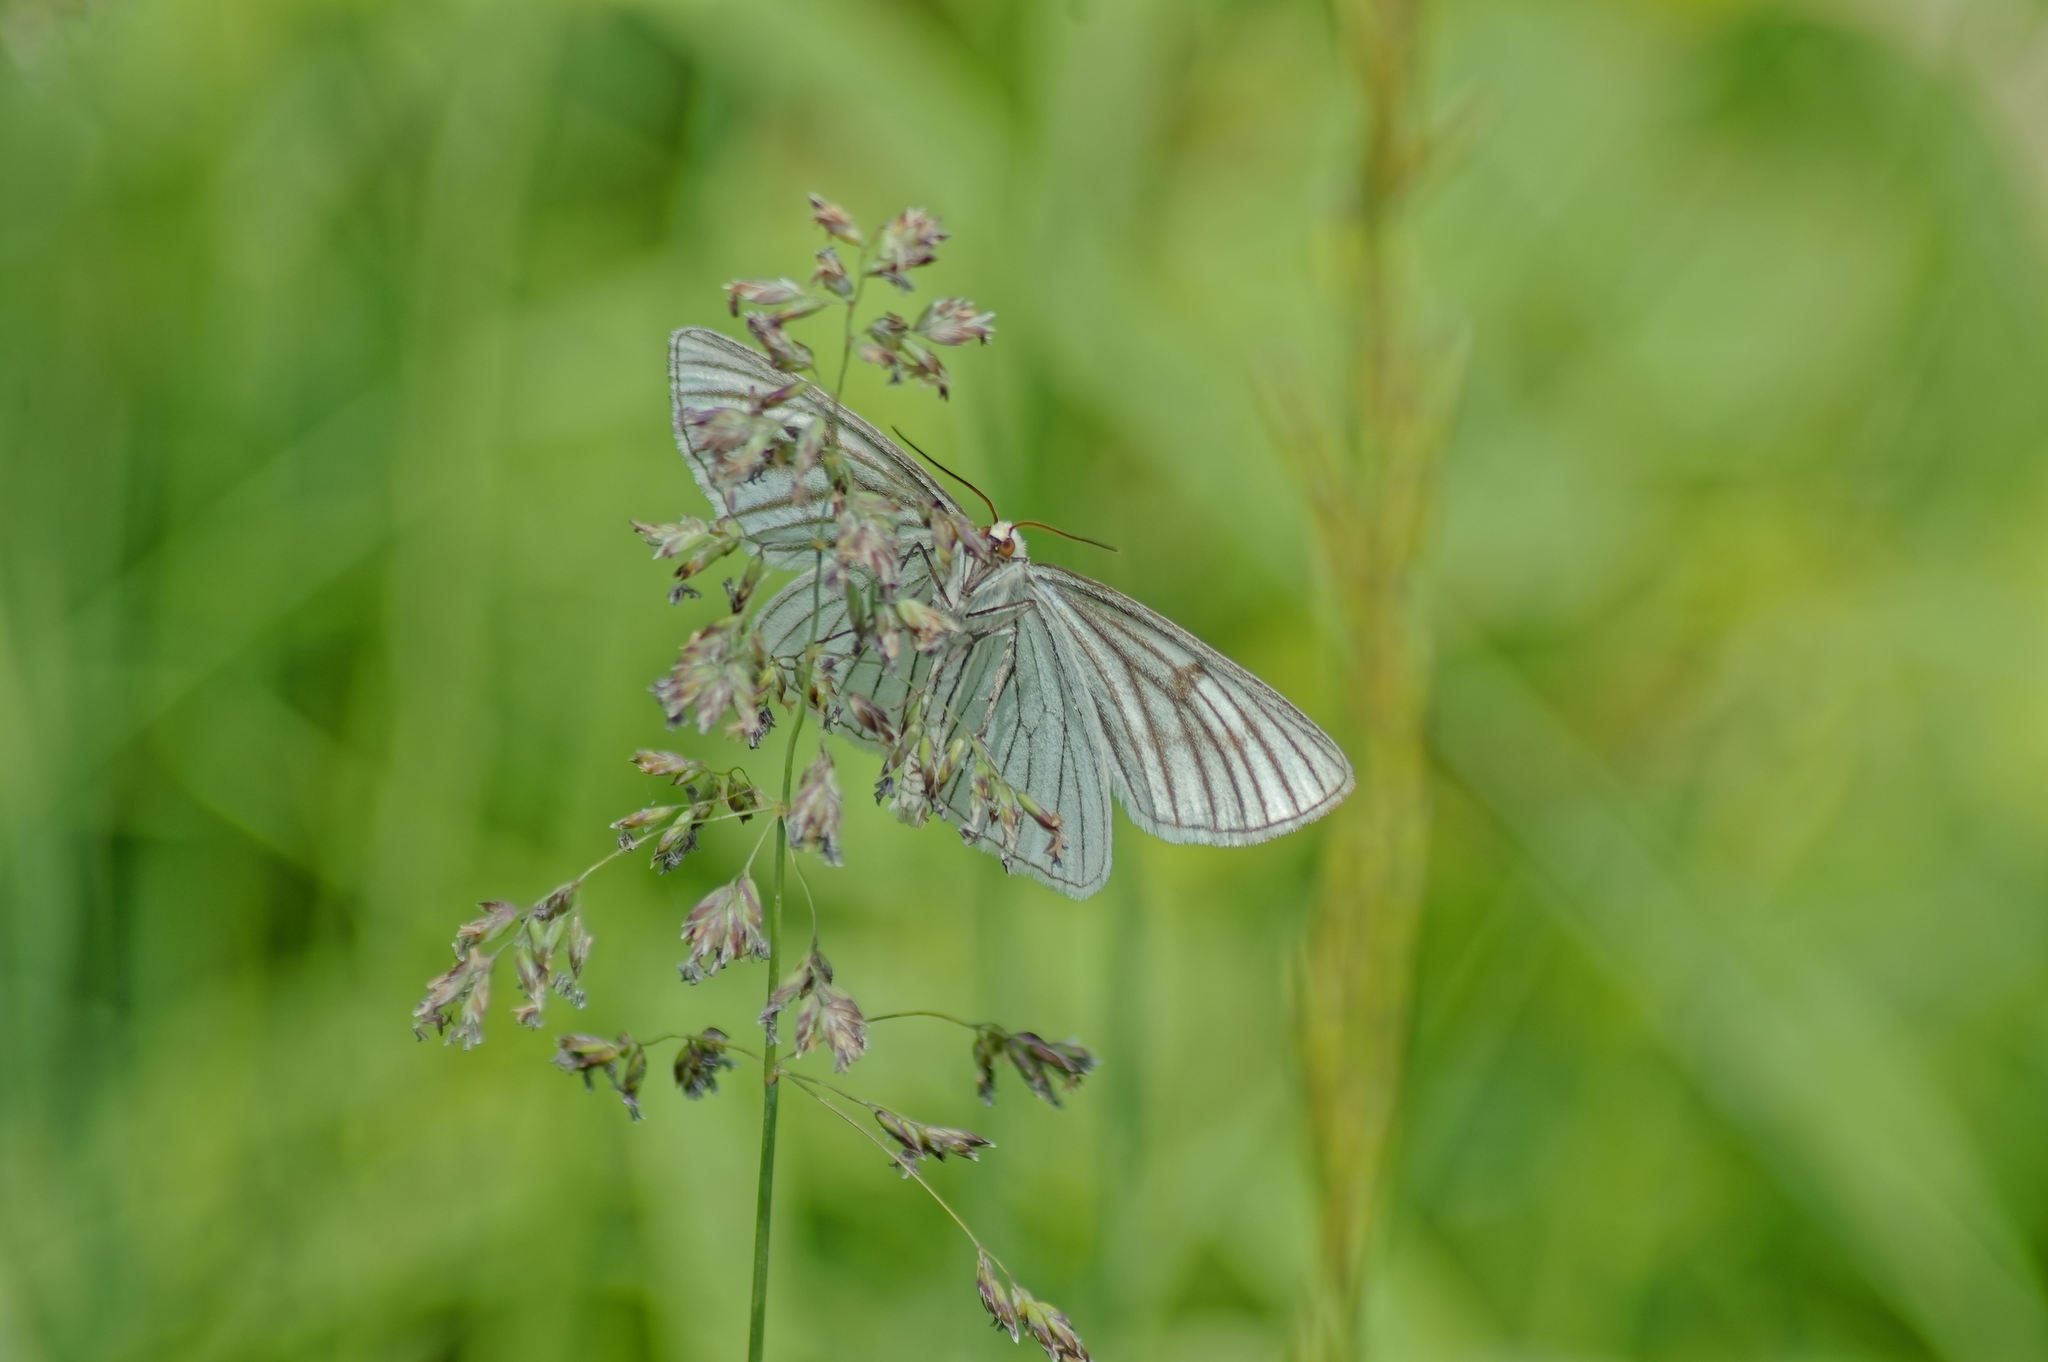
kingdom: Animalia
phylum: Arthropoda
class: Insecta
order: Lepidoptera
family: Geometridae
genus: Siona
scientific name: Siona lineata
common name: Black-veined moth
